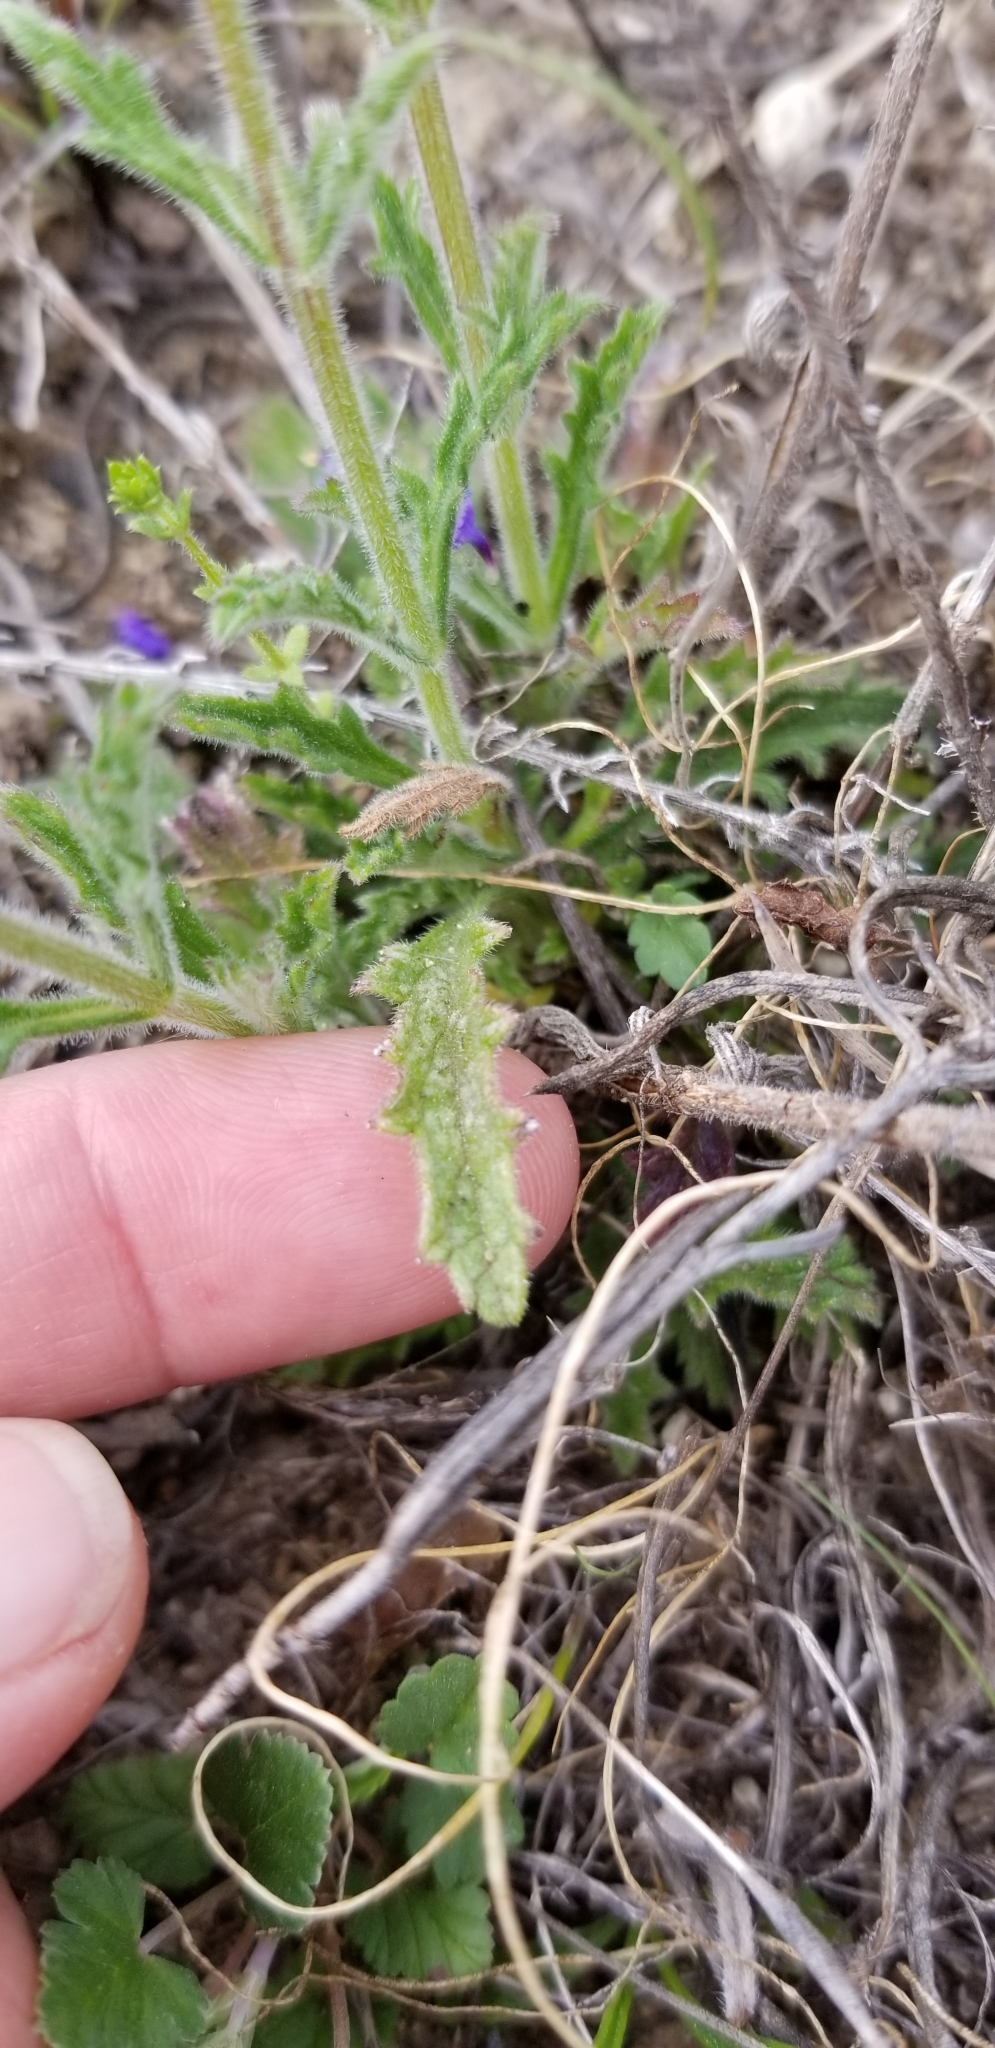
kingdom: Plantae
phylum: Tracheophyta
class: Magnoliopsida
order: Lamiales
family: Verbenaceae
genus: Verbena
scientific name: Verbena canescens
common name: Gray vervain
